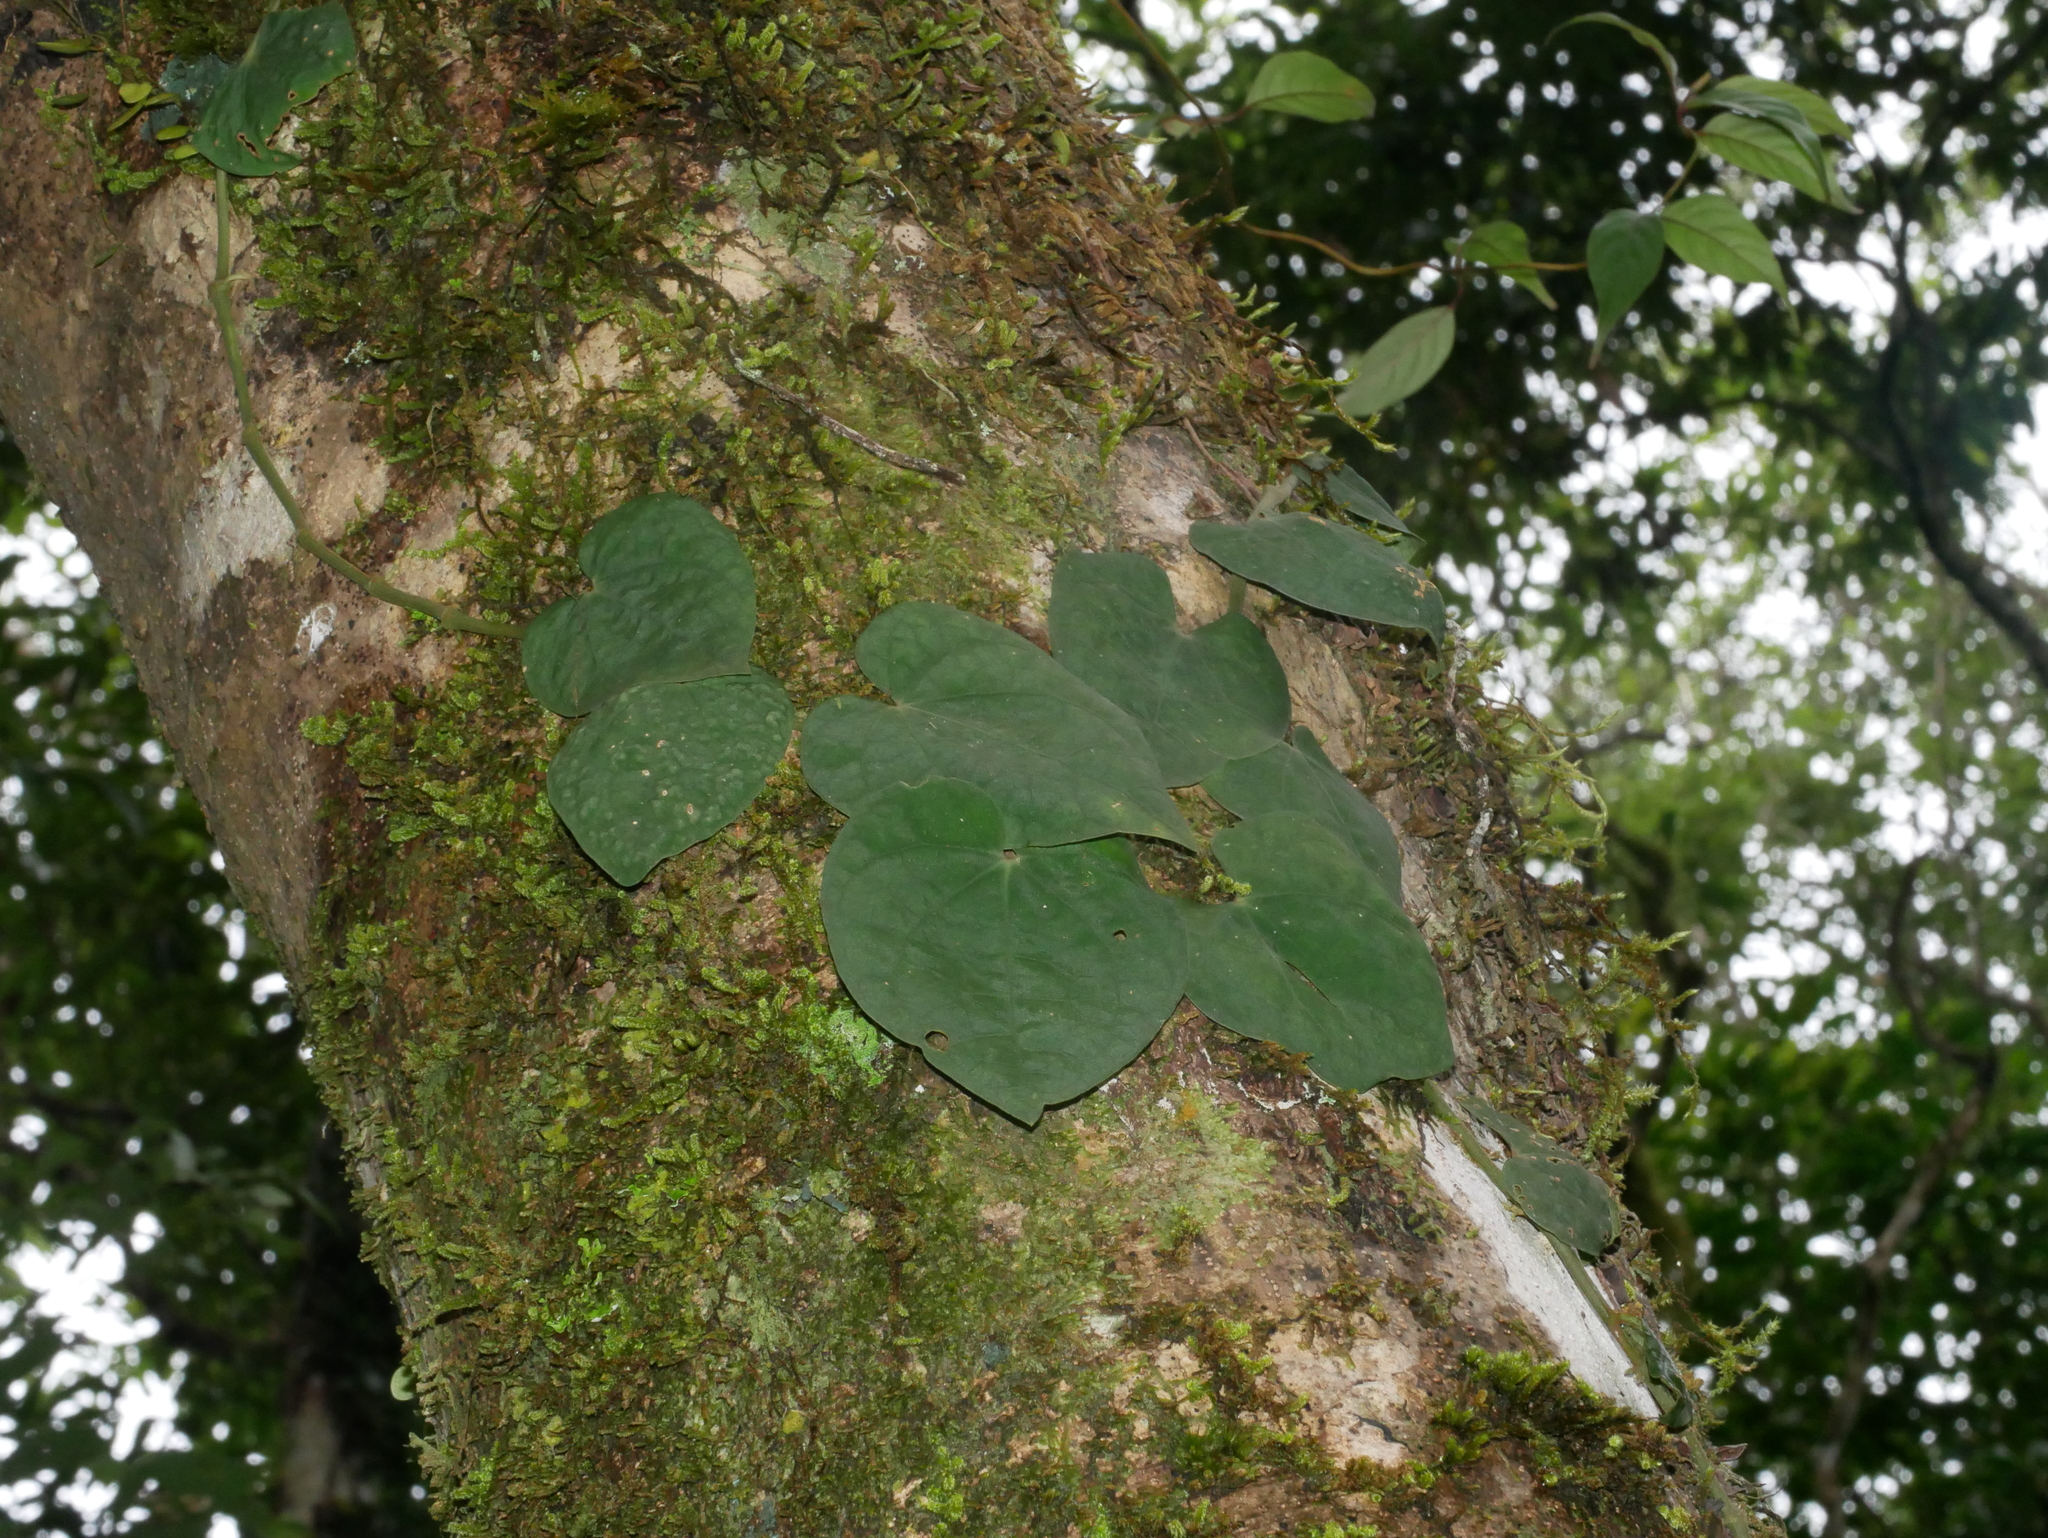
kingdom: Plantae
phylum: Tracheophyta
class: Magnoliopsida
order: Piperales
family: Piperaceae
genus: Piper
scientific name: Piper taiwanense
